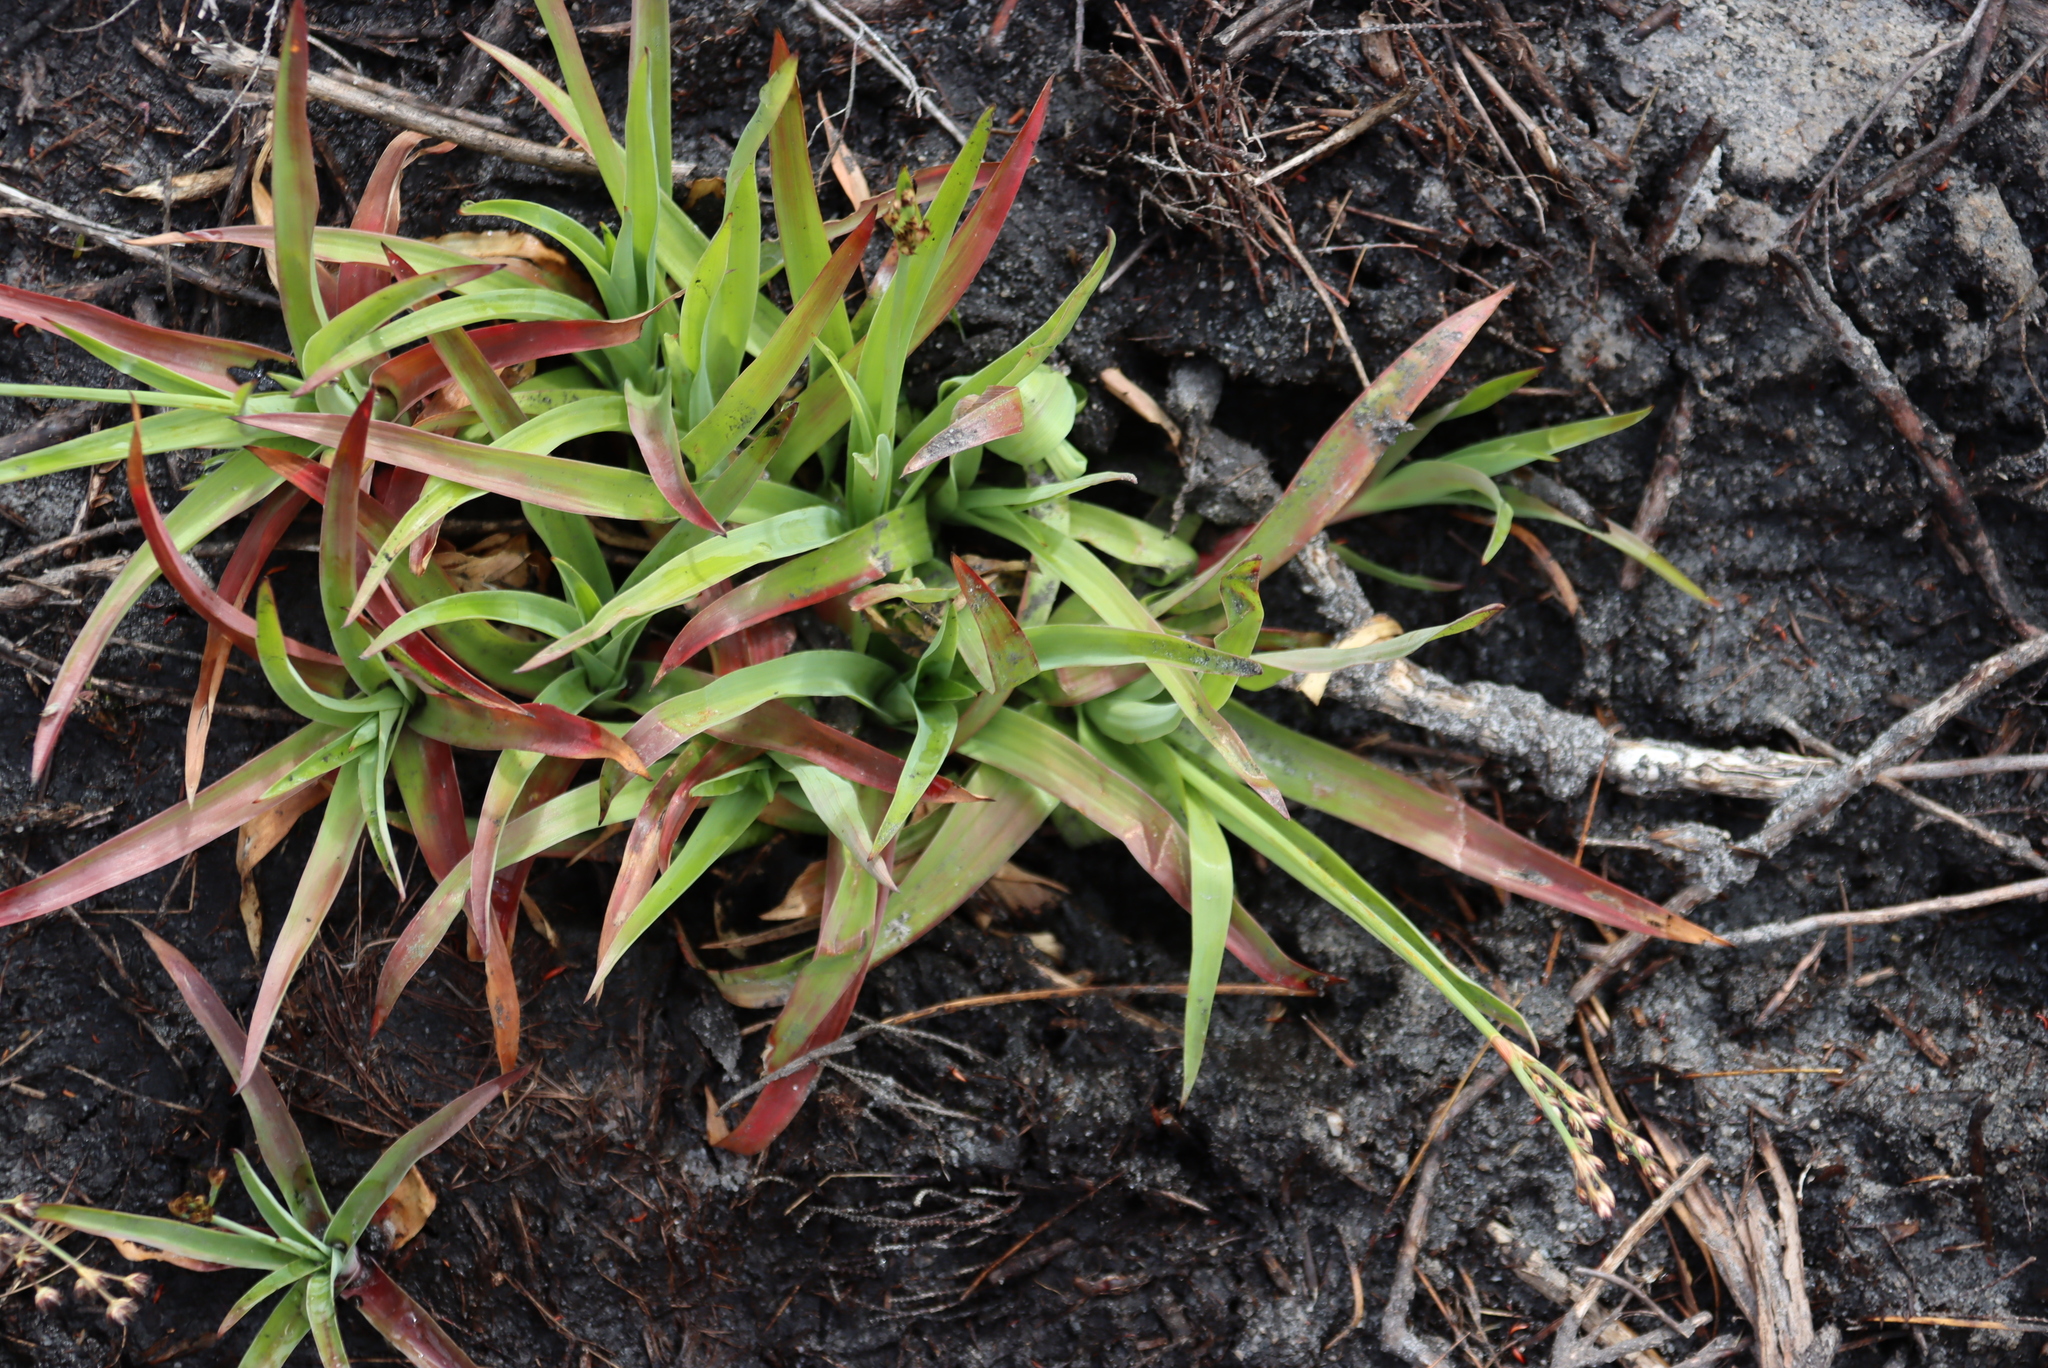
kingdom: Plantae
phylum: Tracheophyta
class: Liliopsida
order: Poales
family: Juncaceae
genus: Juncus
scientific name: Juncus lomatophyllus
